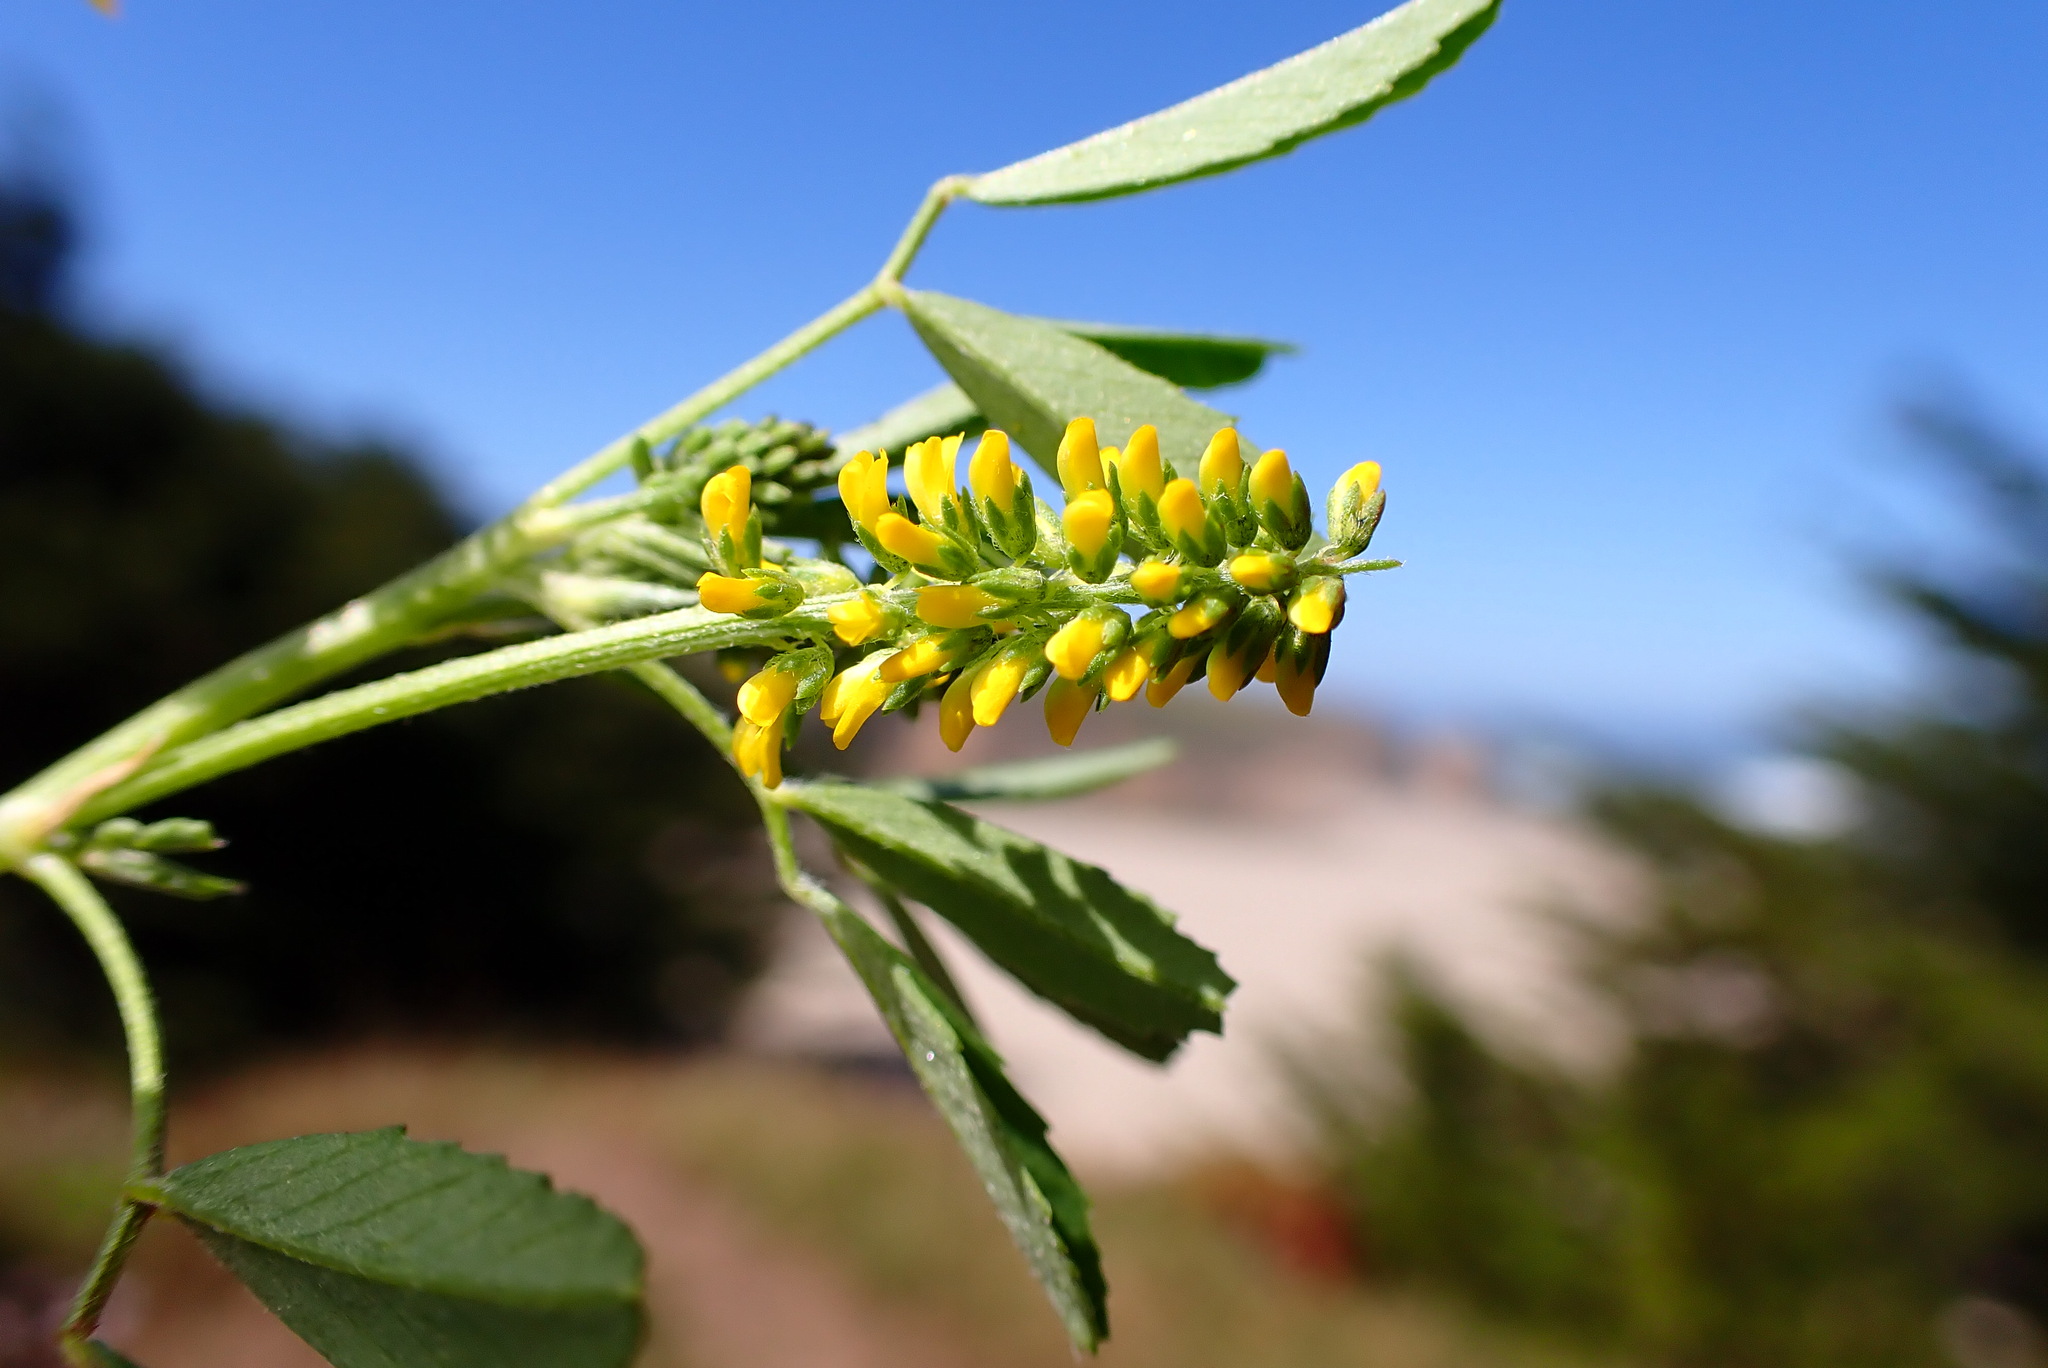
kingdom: Plantae
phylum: Tracheophyta
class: Magnoliopsida
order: Fabales
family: Fabaceae
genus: Melilotus
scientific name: Melilotus indicus
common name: Small melilot
